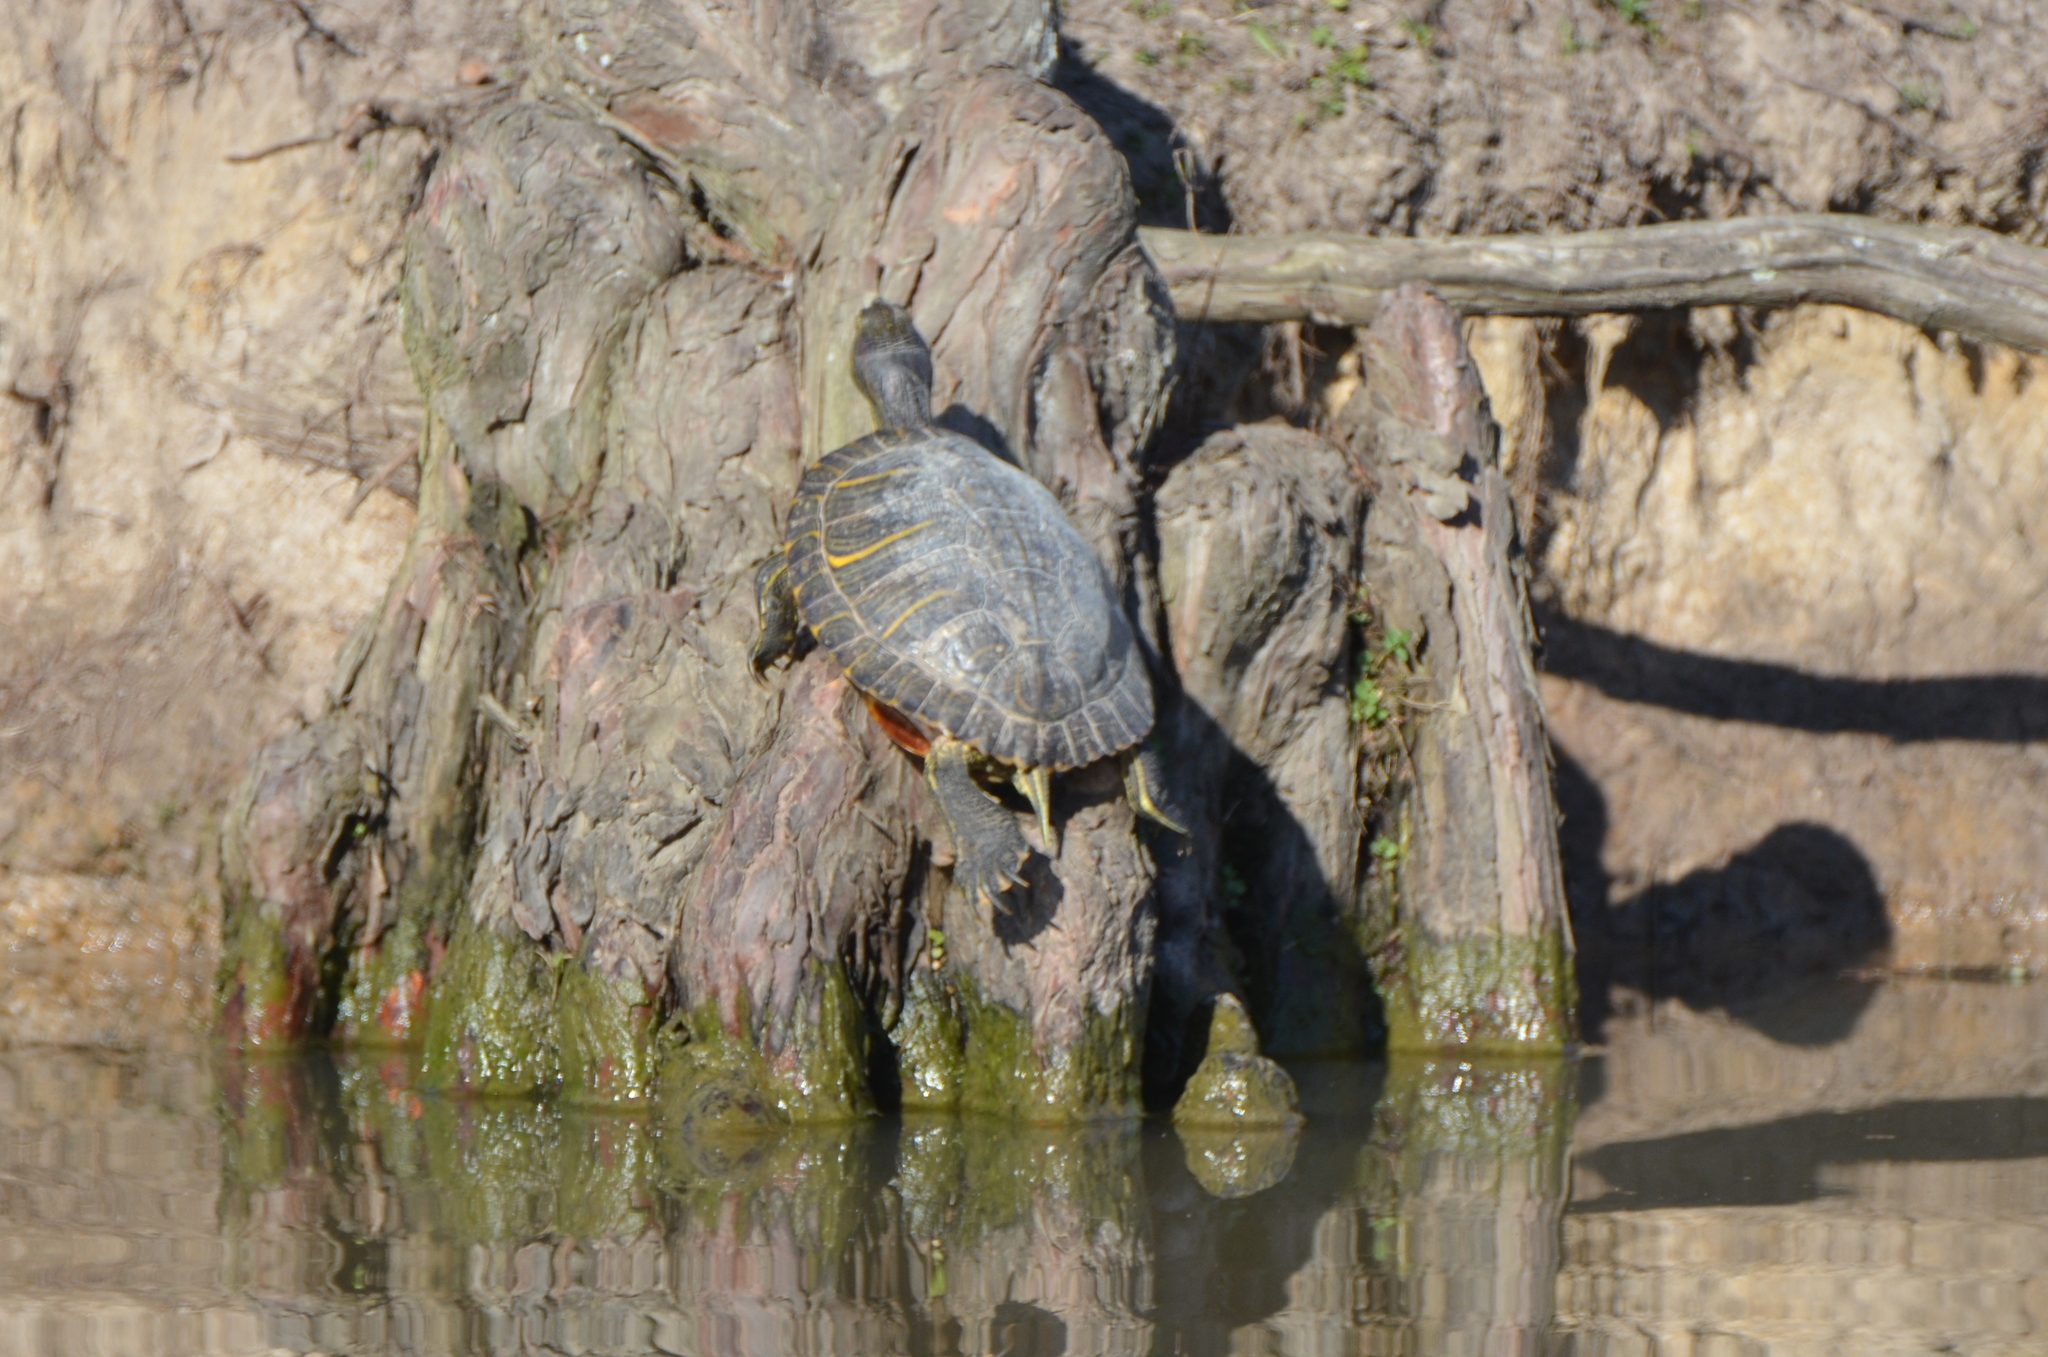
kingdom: Animalia
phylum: Chordata
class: Testudines
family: Emydidae
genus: Trachemys
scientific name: Trachemys scripta
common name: Slider
